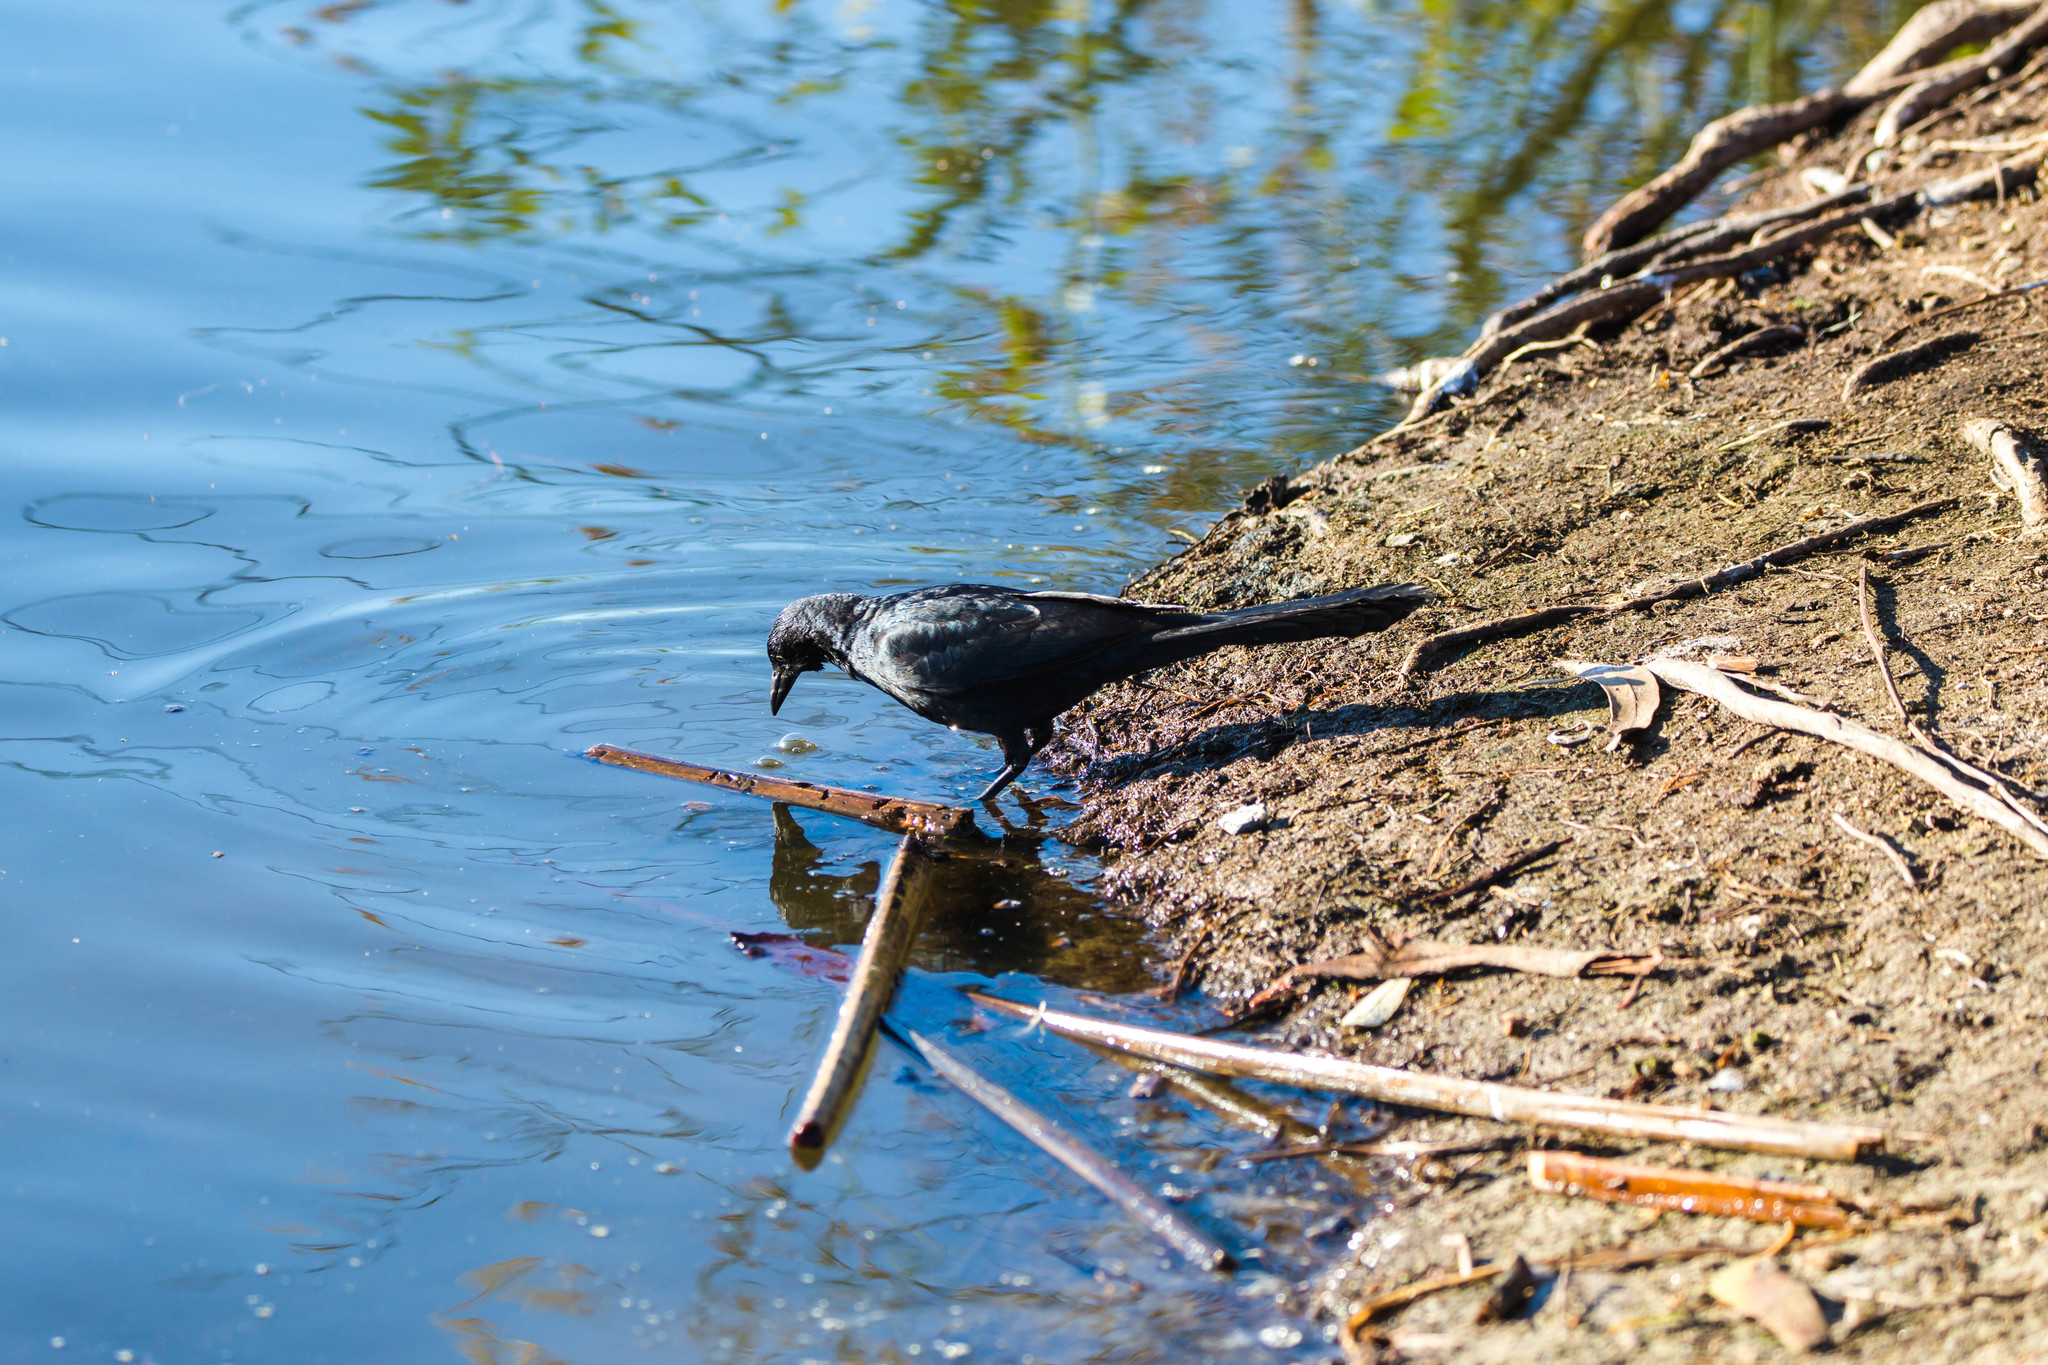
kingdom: Animalia
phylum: Chordata
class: Aves
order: Passeriformes
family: Icteridae
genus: Quiscalus
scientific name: Quiscalus mexicanus
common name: Great-tailed grackle
